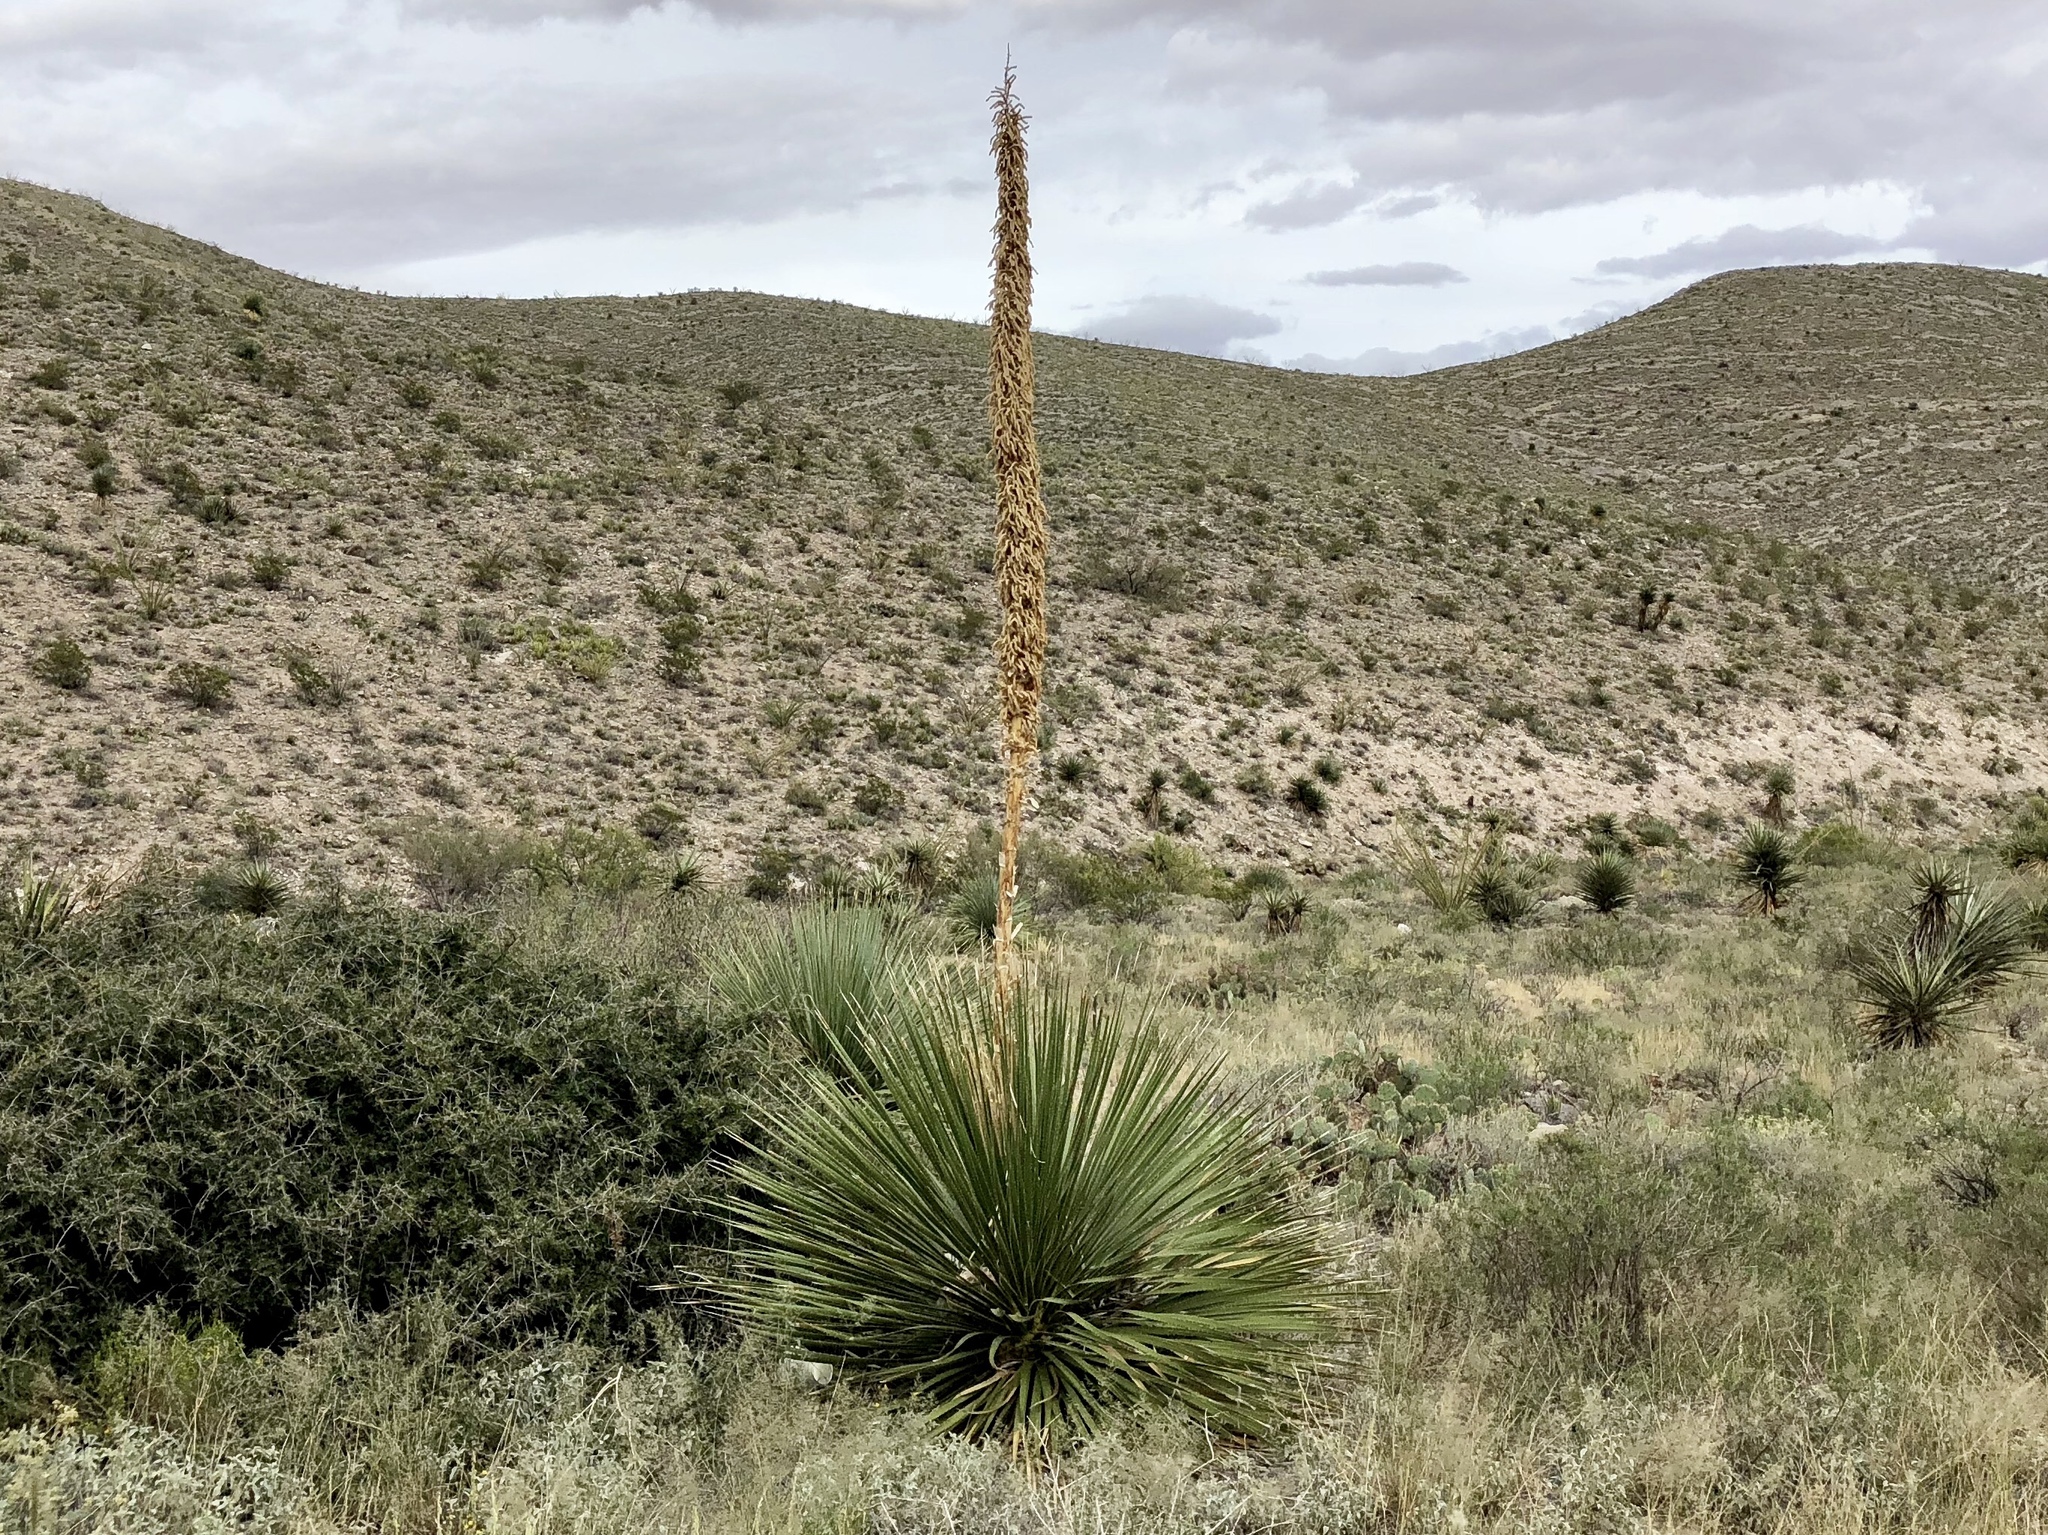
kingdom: Plantae
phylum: Tracheophyta
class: Liliopsida
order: Asparagales
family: Asparagaceae
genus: Dasylirion
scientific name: Dasylirion wheeleri
